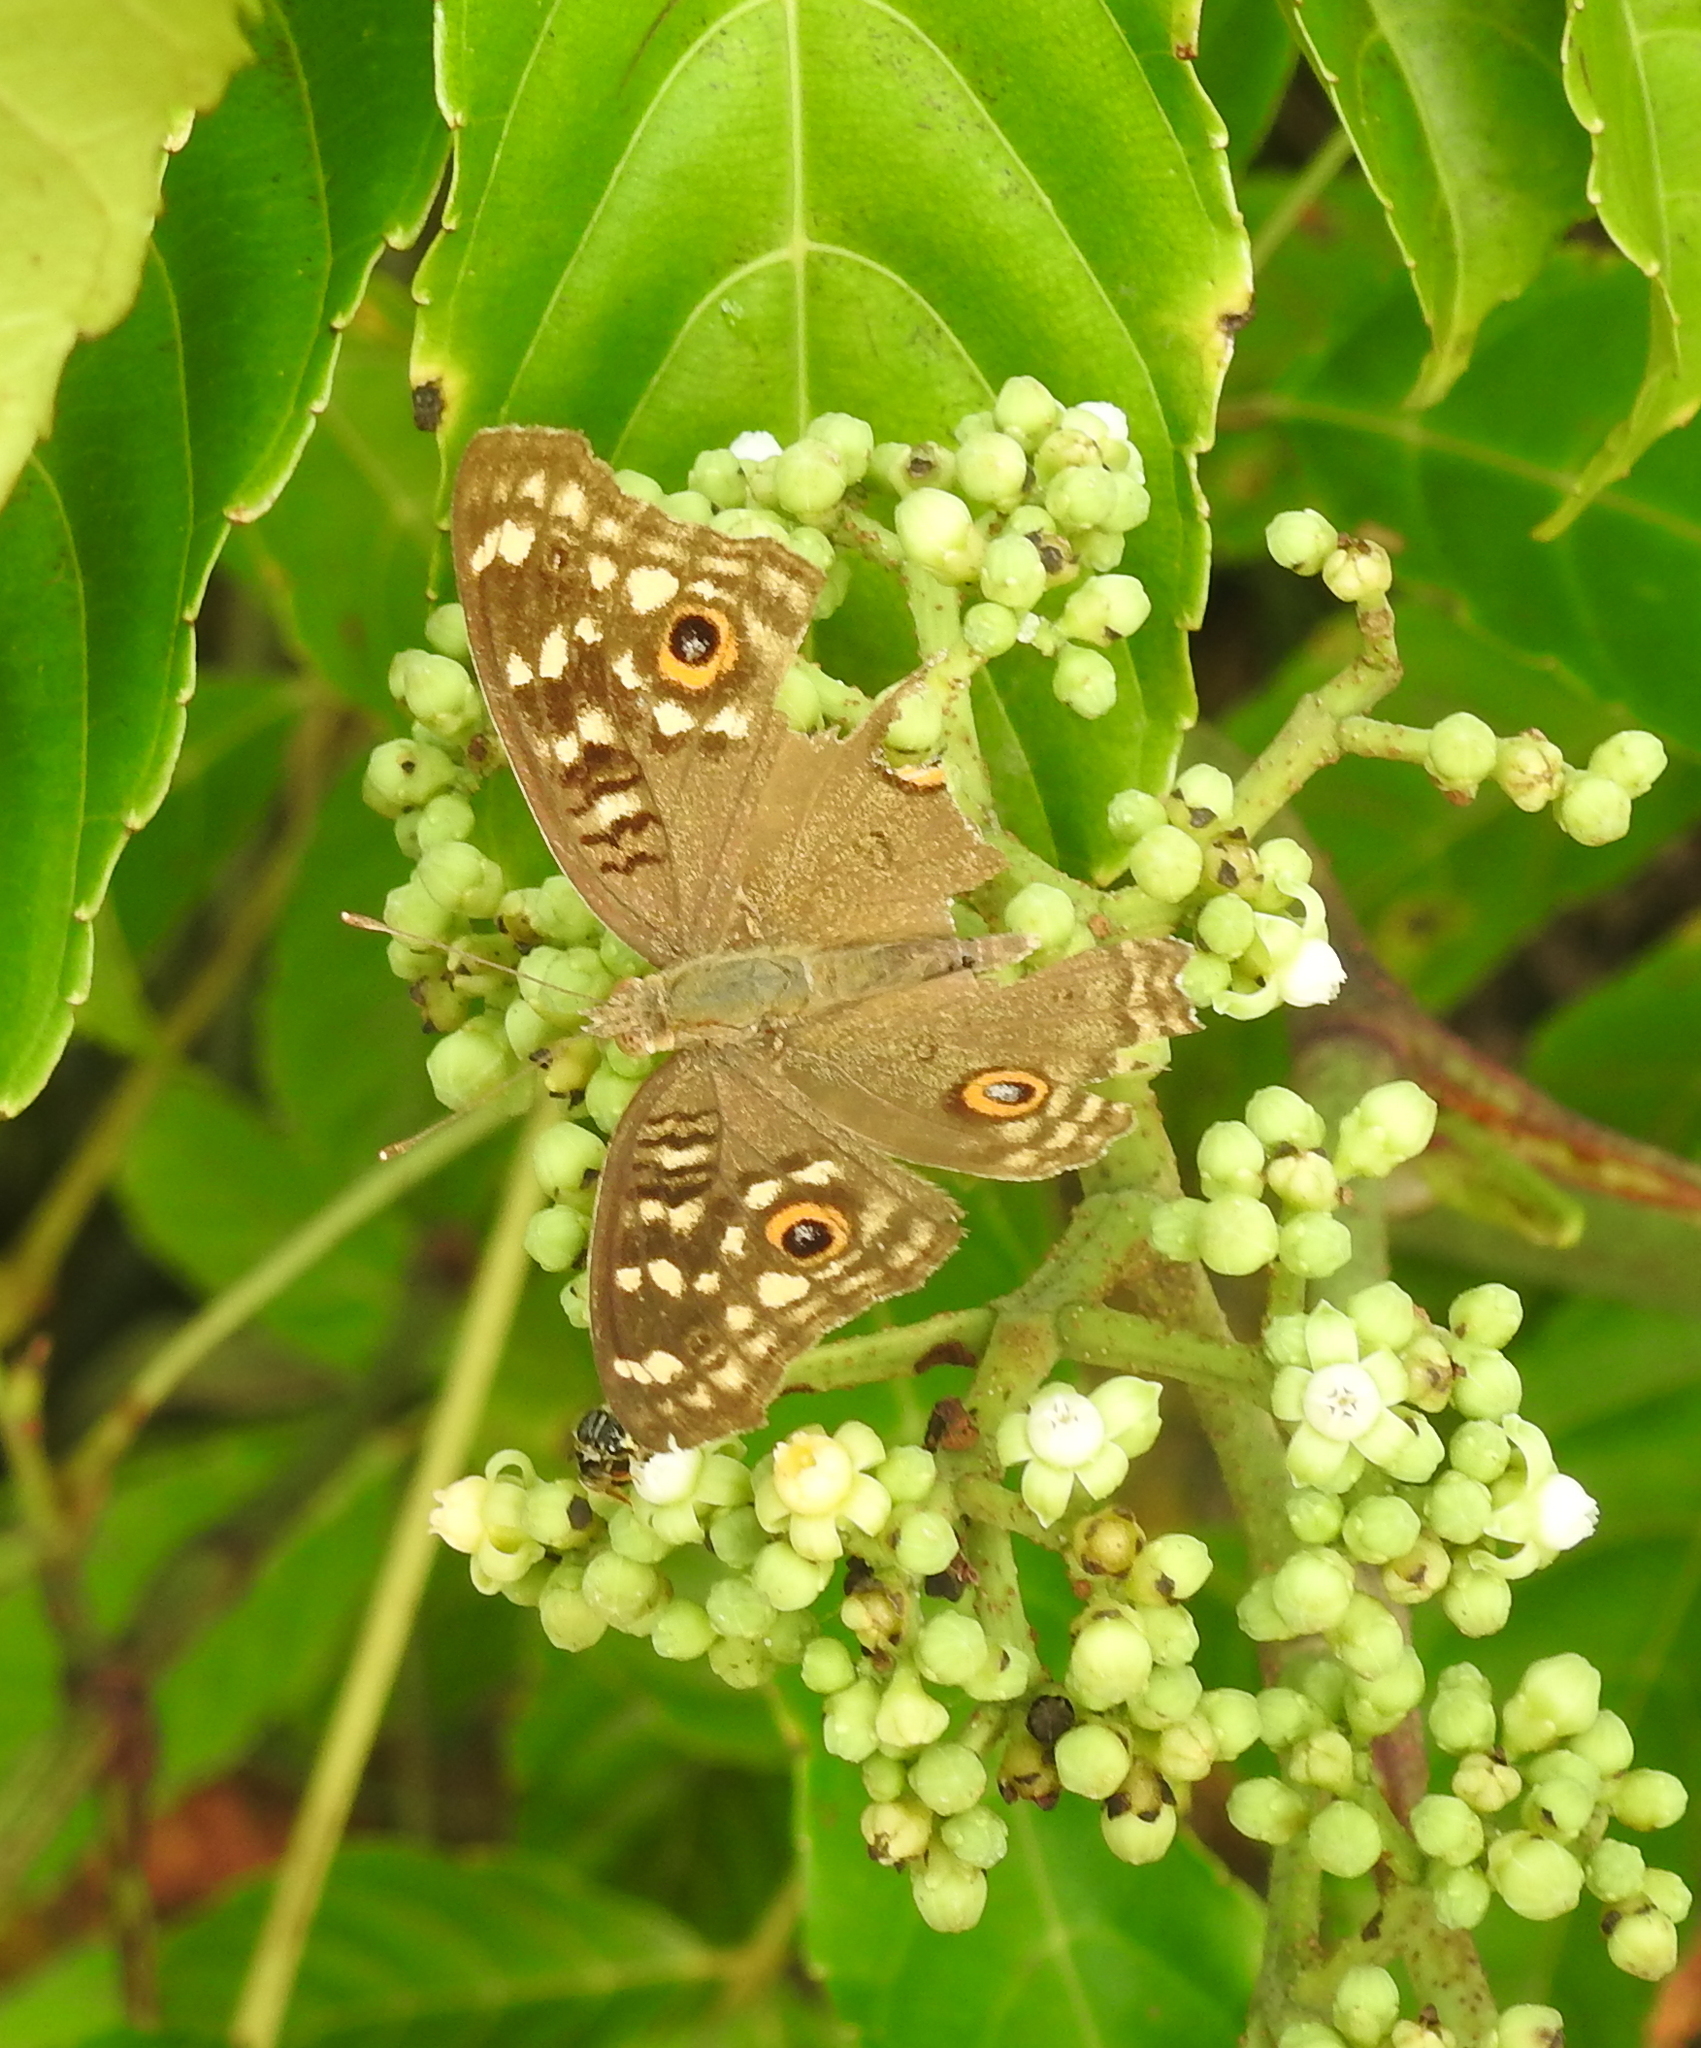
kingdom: Animalia
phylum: Arthropoda
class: Insecta
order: Lepidoptera
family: Nymphalidae
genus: Junonia
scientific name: Junonia lemonias
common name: Lemon pansy
